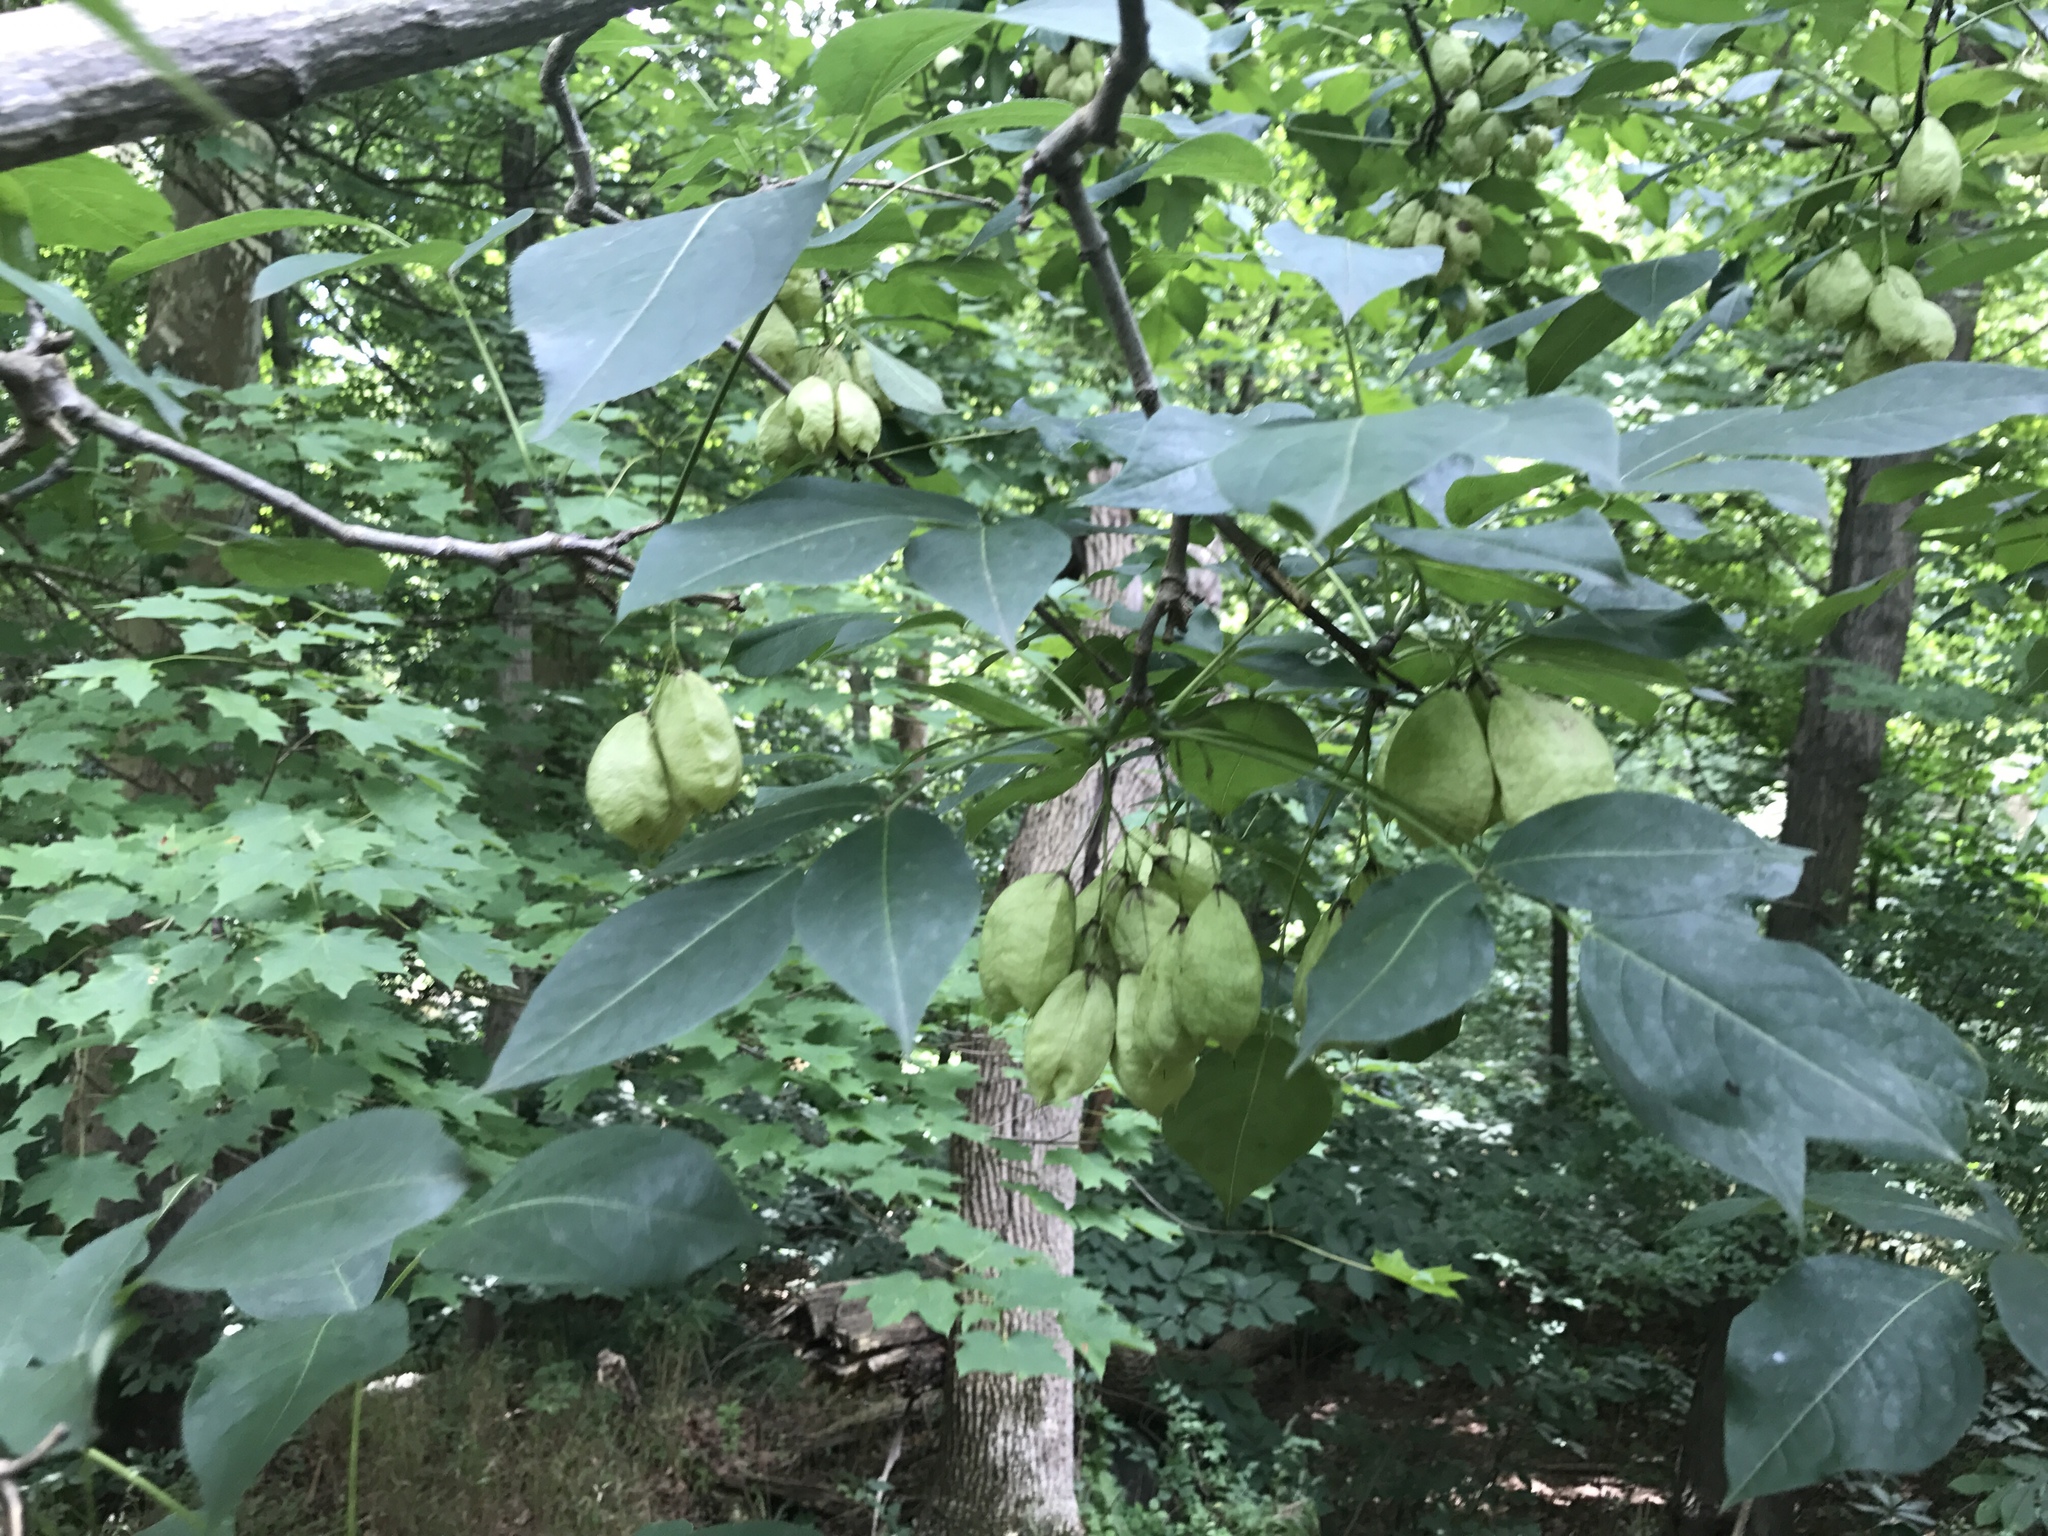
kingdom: Plantae
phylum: Tracheophyta
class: Magnoliopsida
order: Crossosomatales
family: Staphyleaceae
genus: Staphylea
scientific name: Staphylea trifolia
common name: American bladdernut
